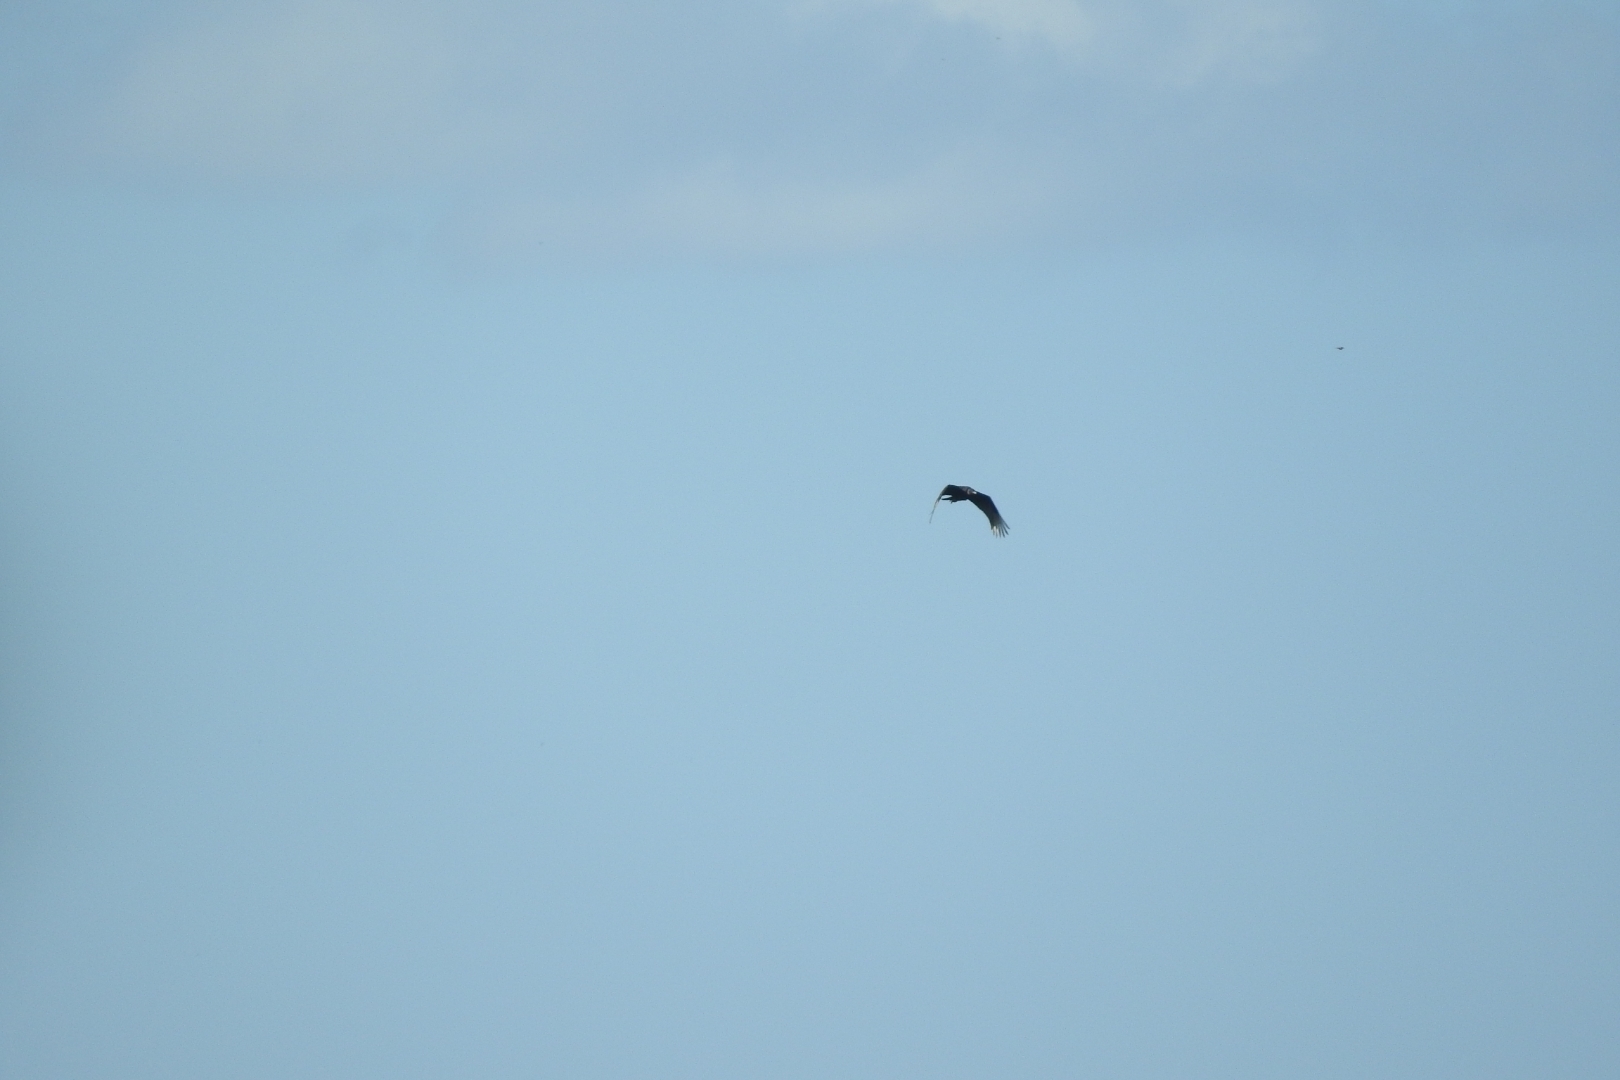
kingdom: Animalia
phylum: Chordata
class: Aves
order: Accipitriformes
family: Cathartidae
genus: Coragyps
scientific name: Coragyps atratus
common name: Black vulture
